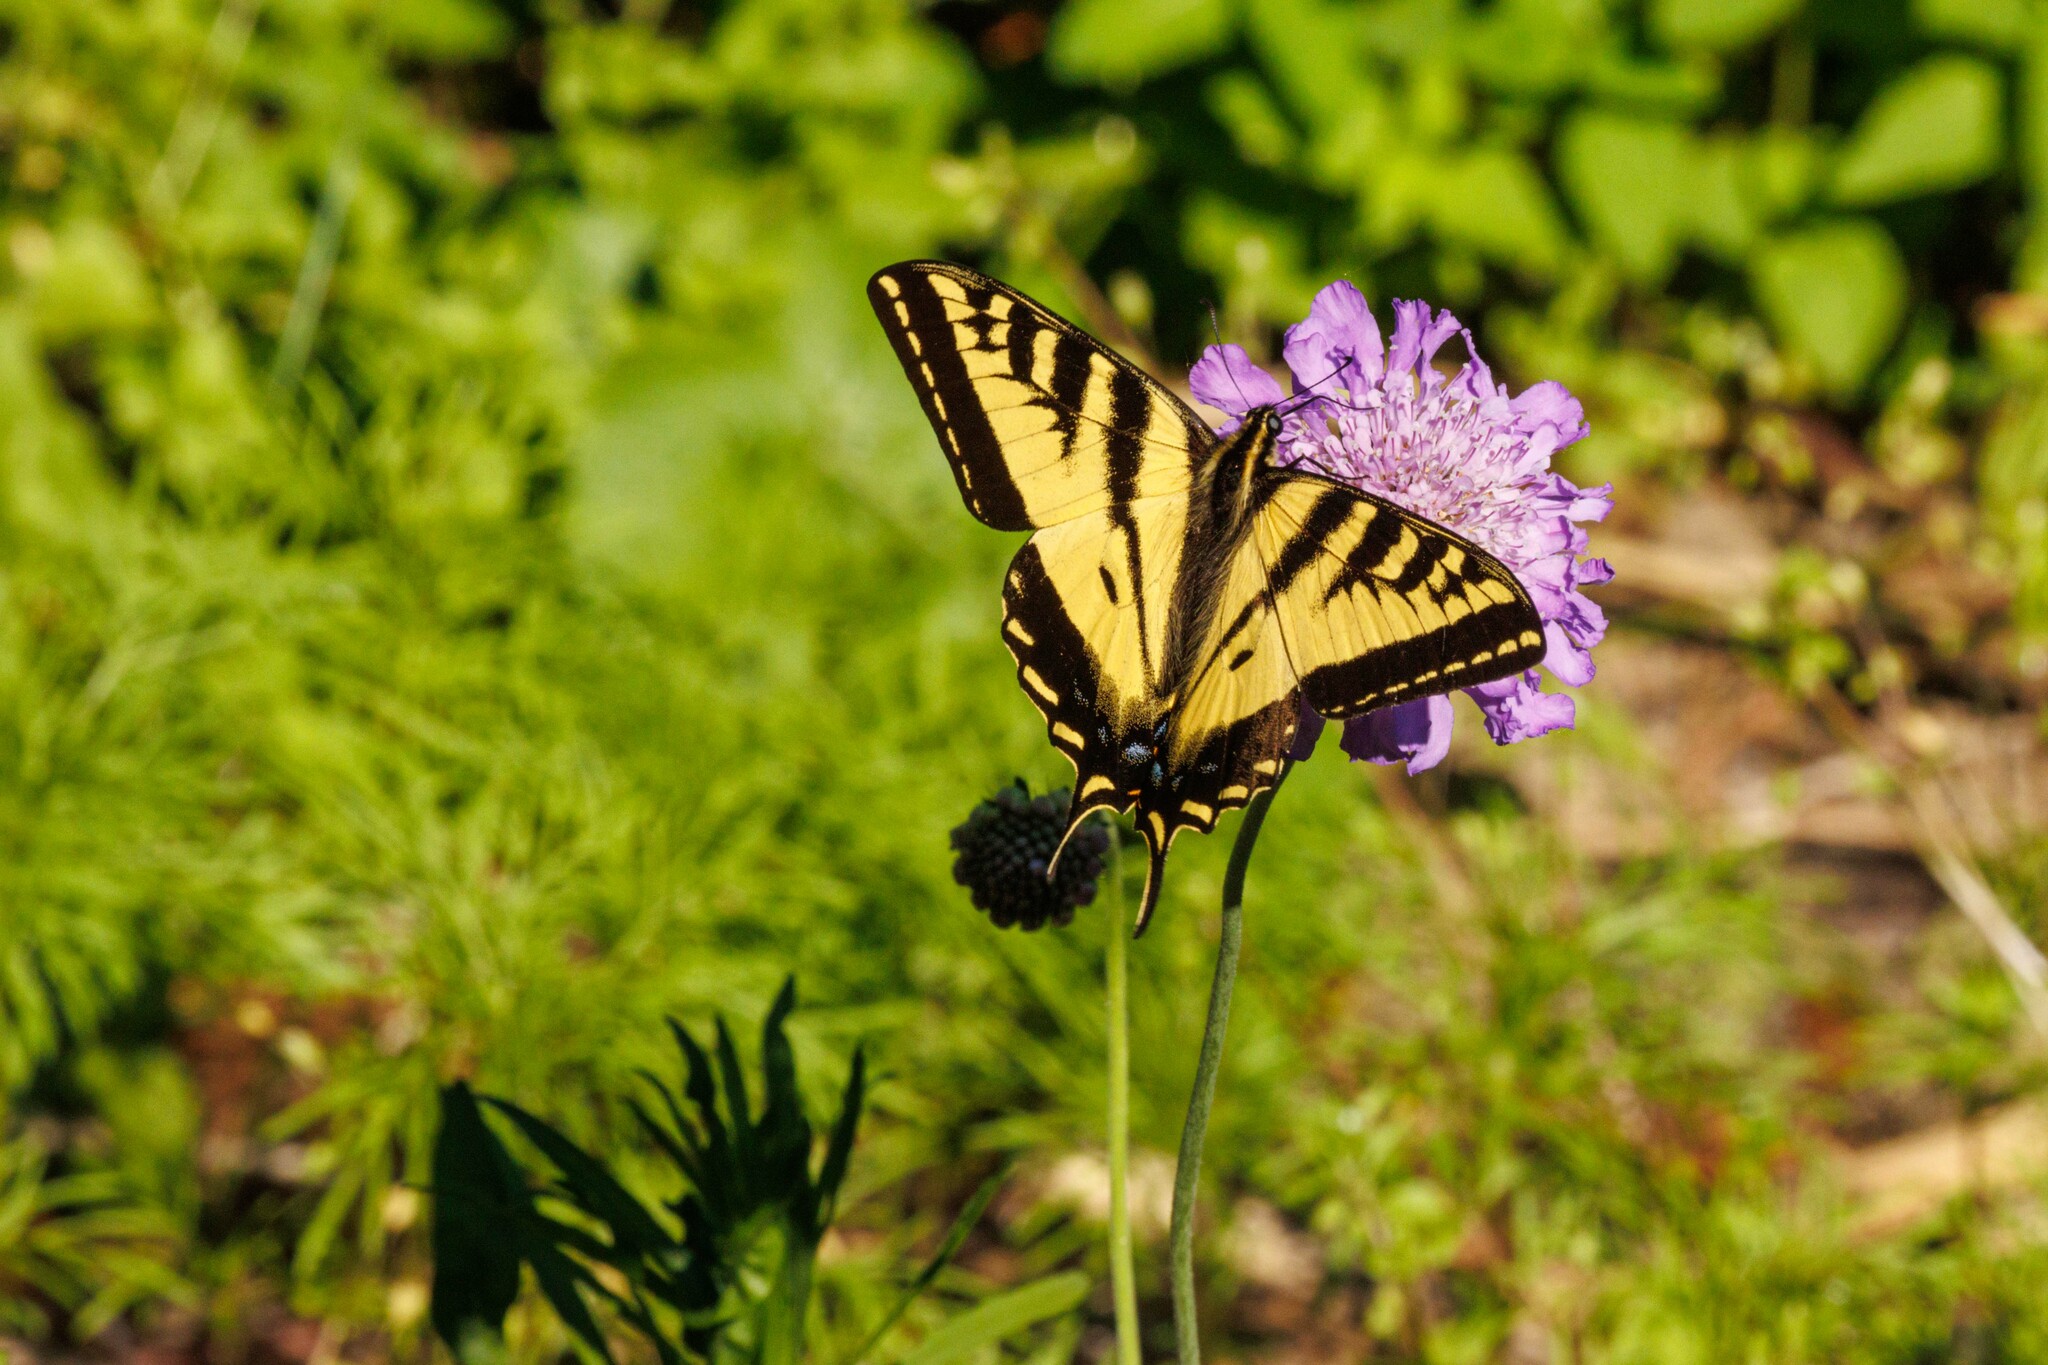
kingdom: Animalia
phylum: Arthropoda
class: Insecta
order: Lepidoptera
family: Papilionidae
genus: Papilio
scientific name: Papilio rutulus
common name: Western tiger swallowtail
